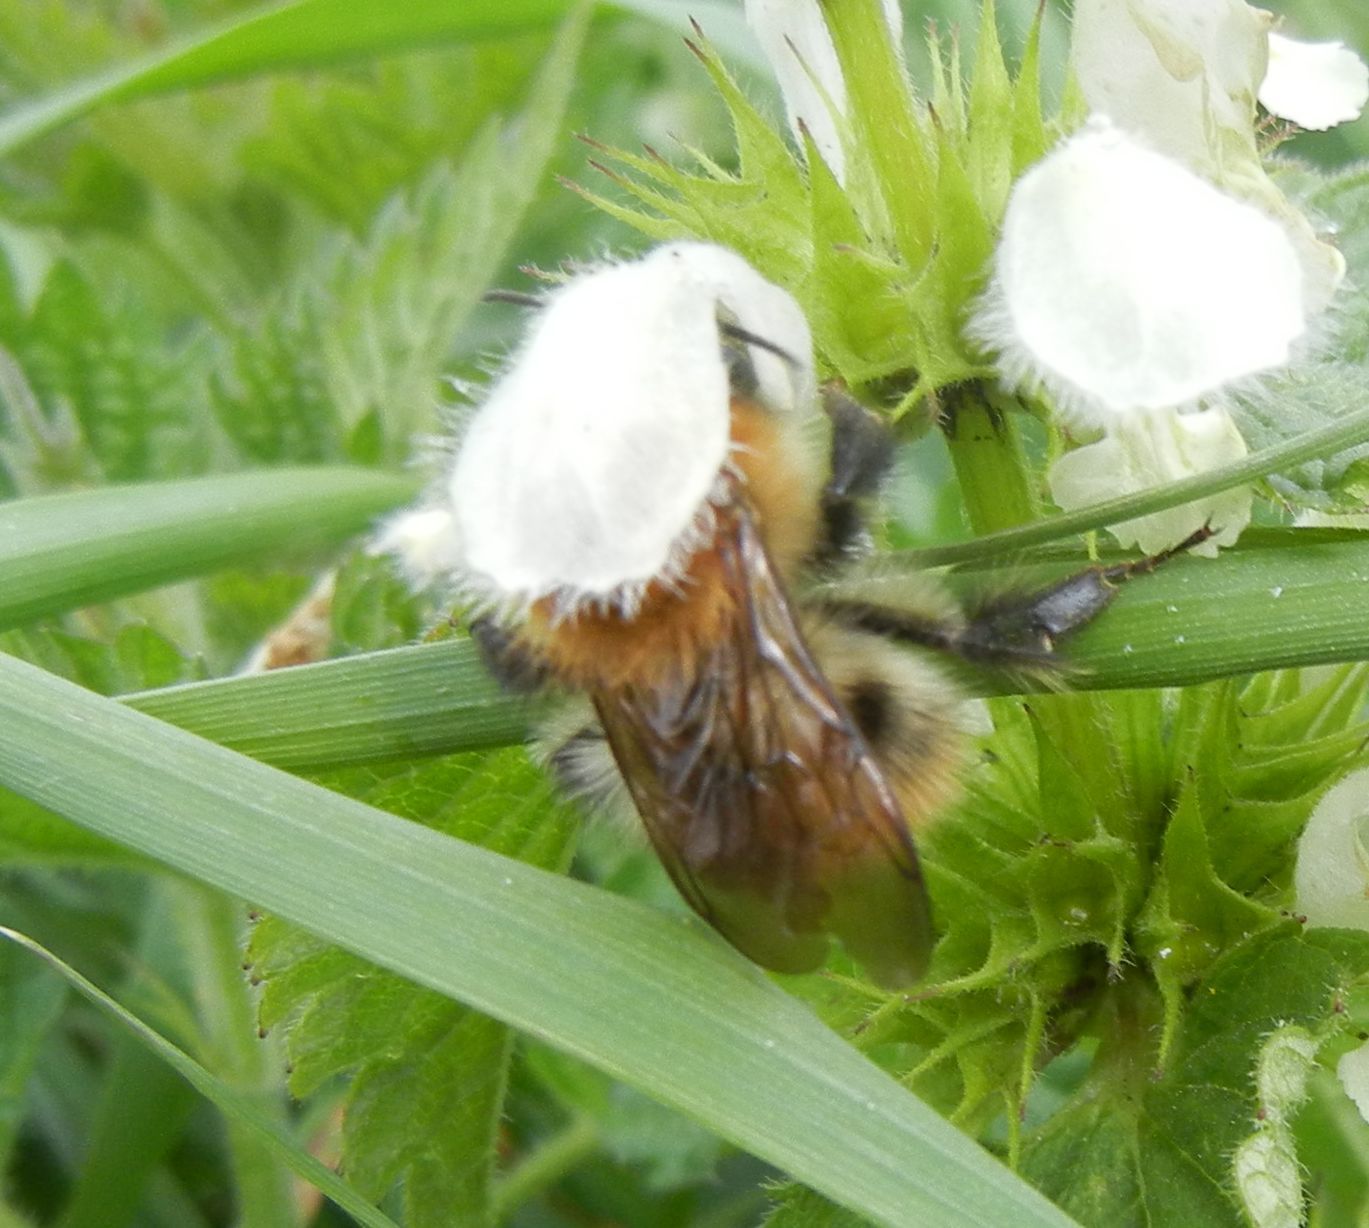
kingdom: Animalia
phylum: Arthropoda
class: Insecta
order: Hymenoptera
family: Apidae
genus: Bombus
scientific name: Bombus pascuorum
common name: Common carder bee
